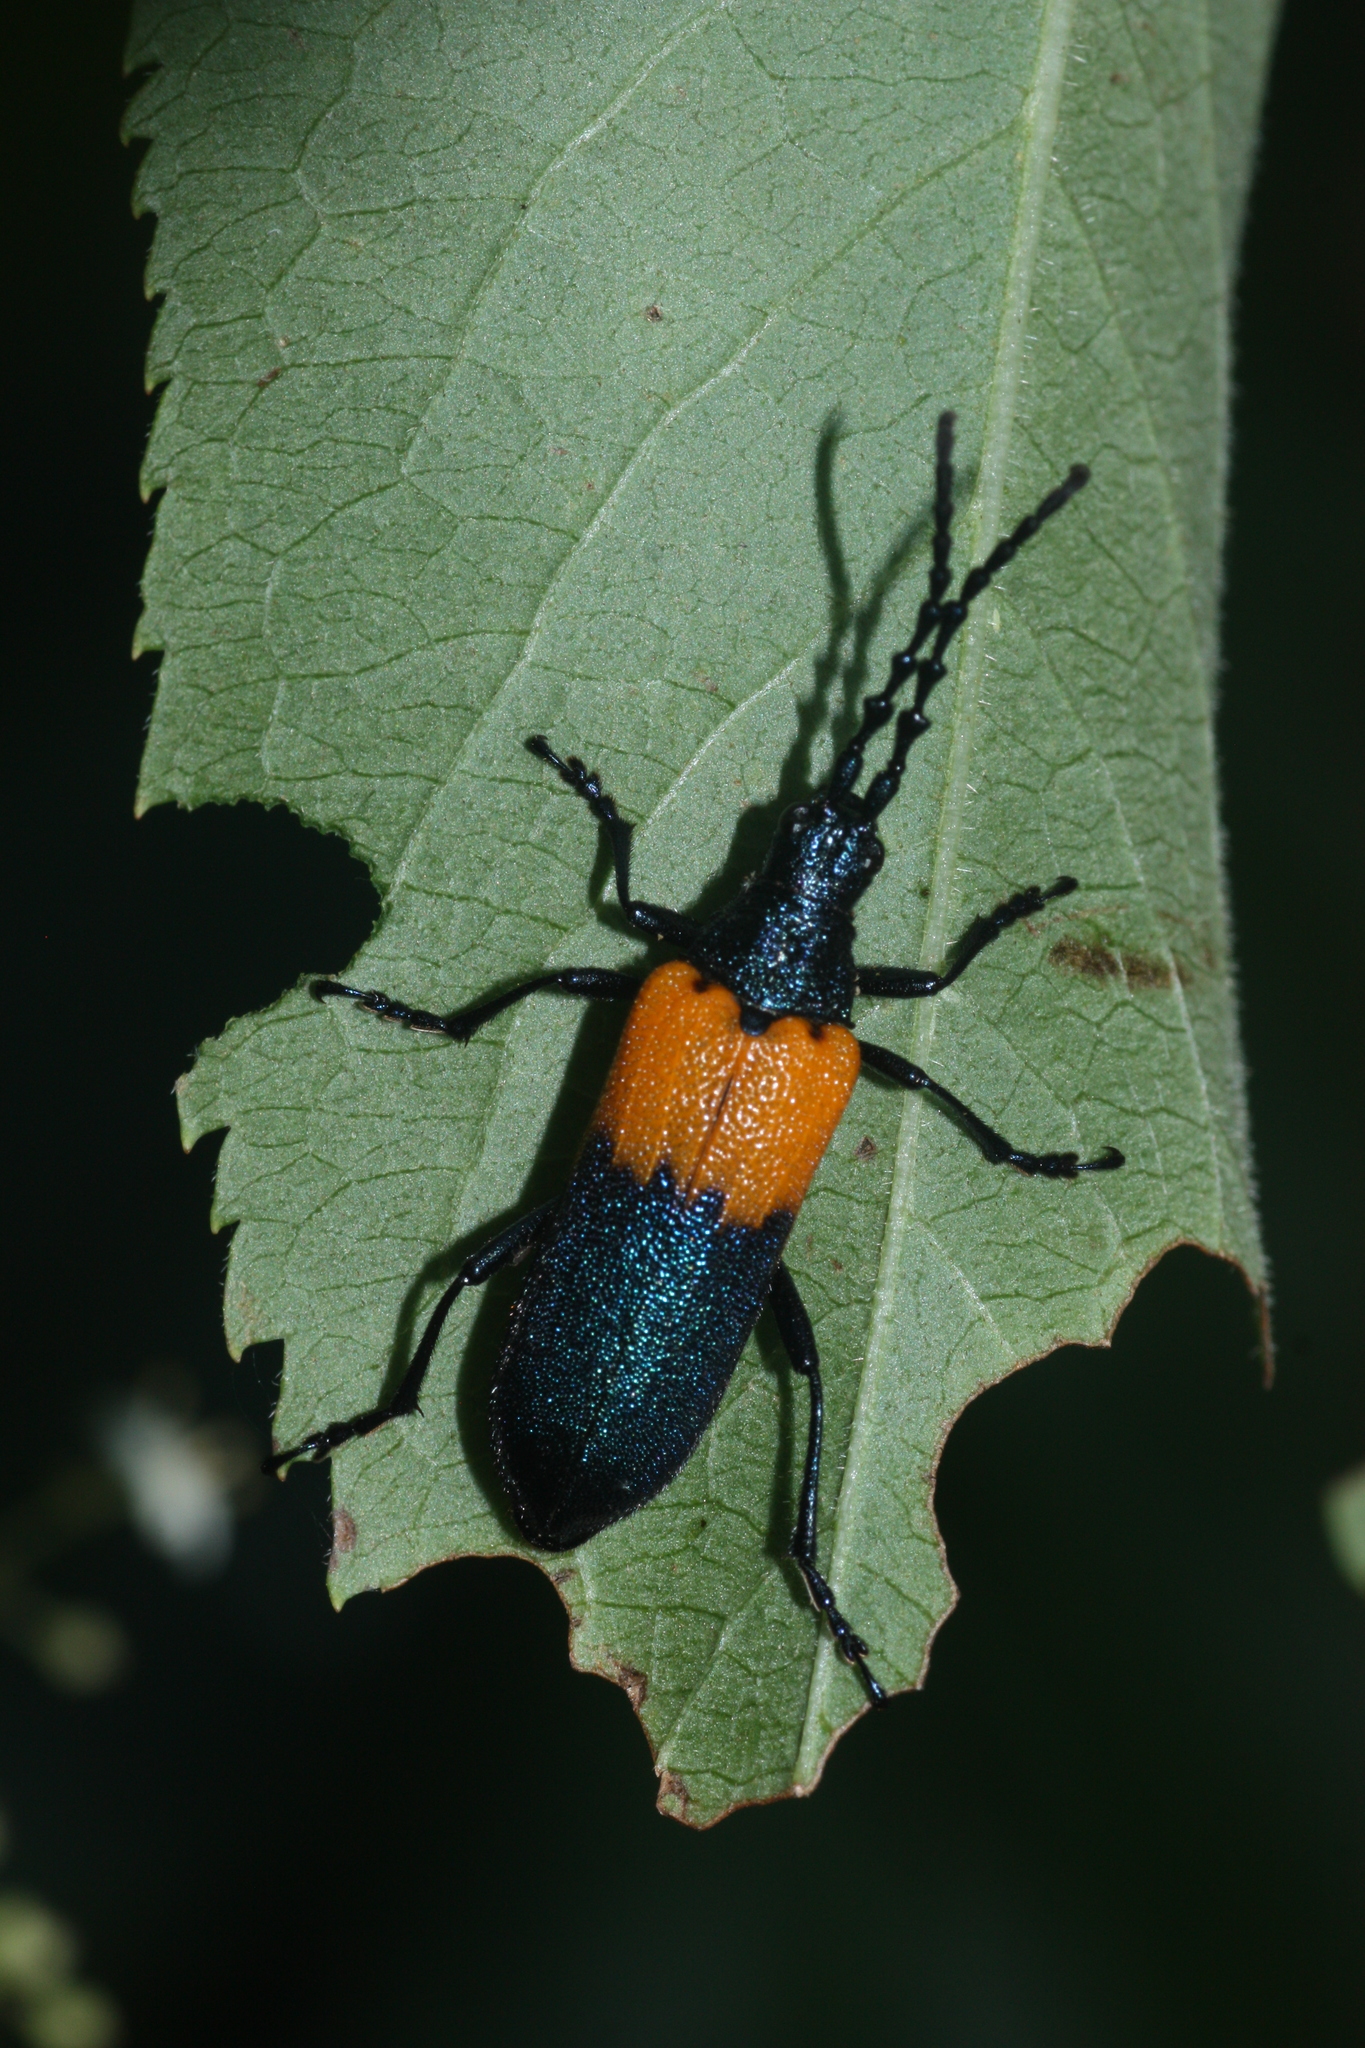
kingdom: Animalia
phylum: Arthropoda
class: Insecta
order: Coleoptera
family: Cerambycidae
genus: Desmocerus
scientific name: Desmocerus palliatus
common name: Eastern elderberry borer
